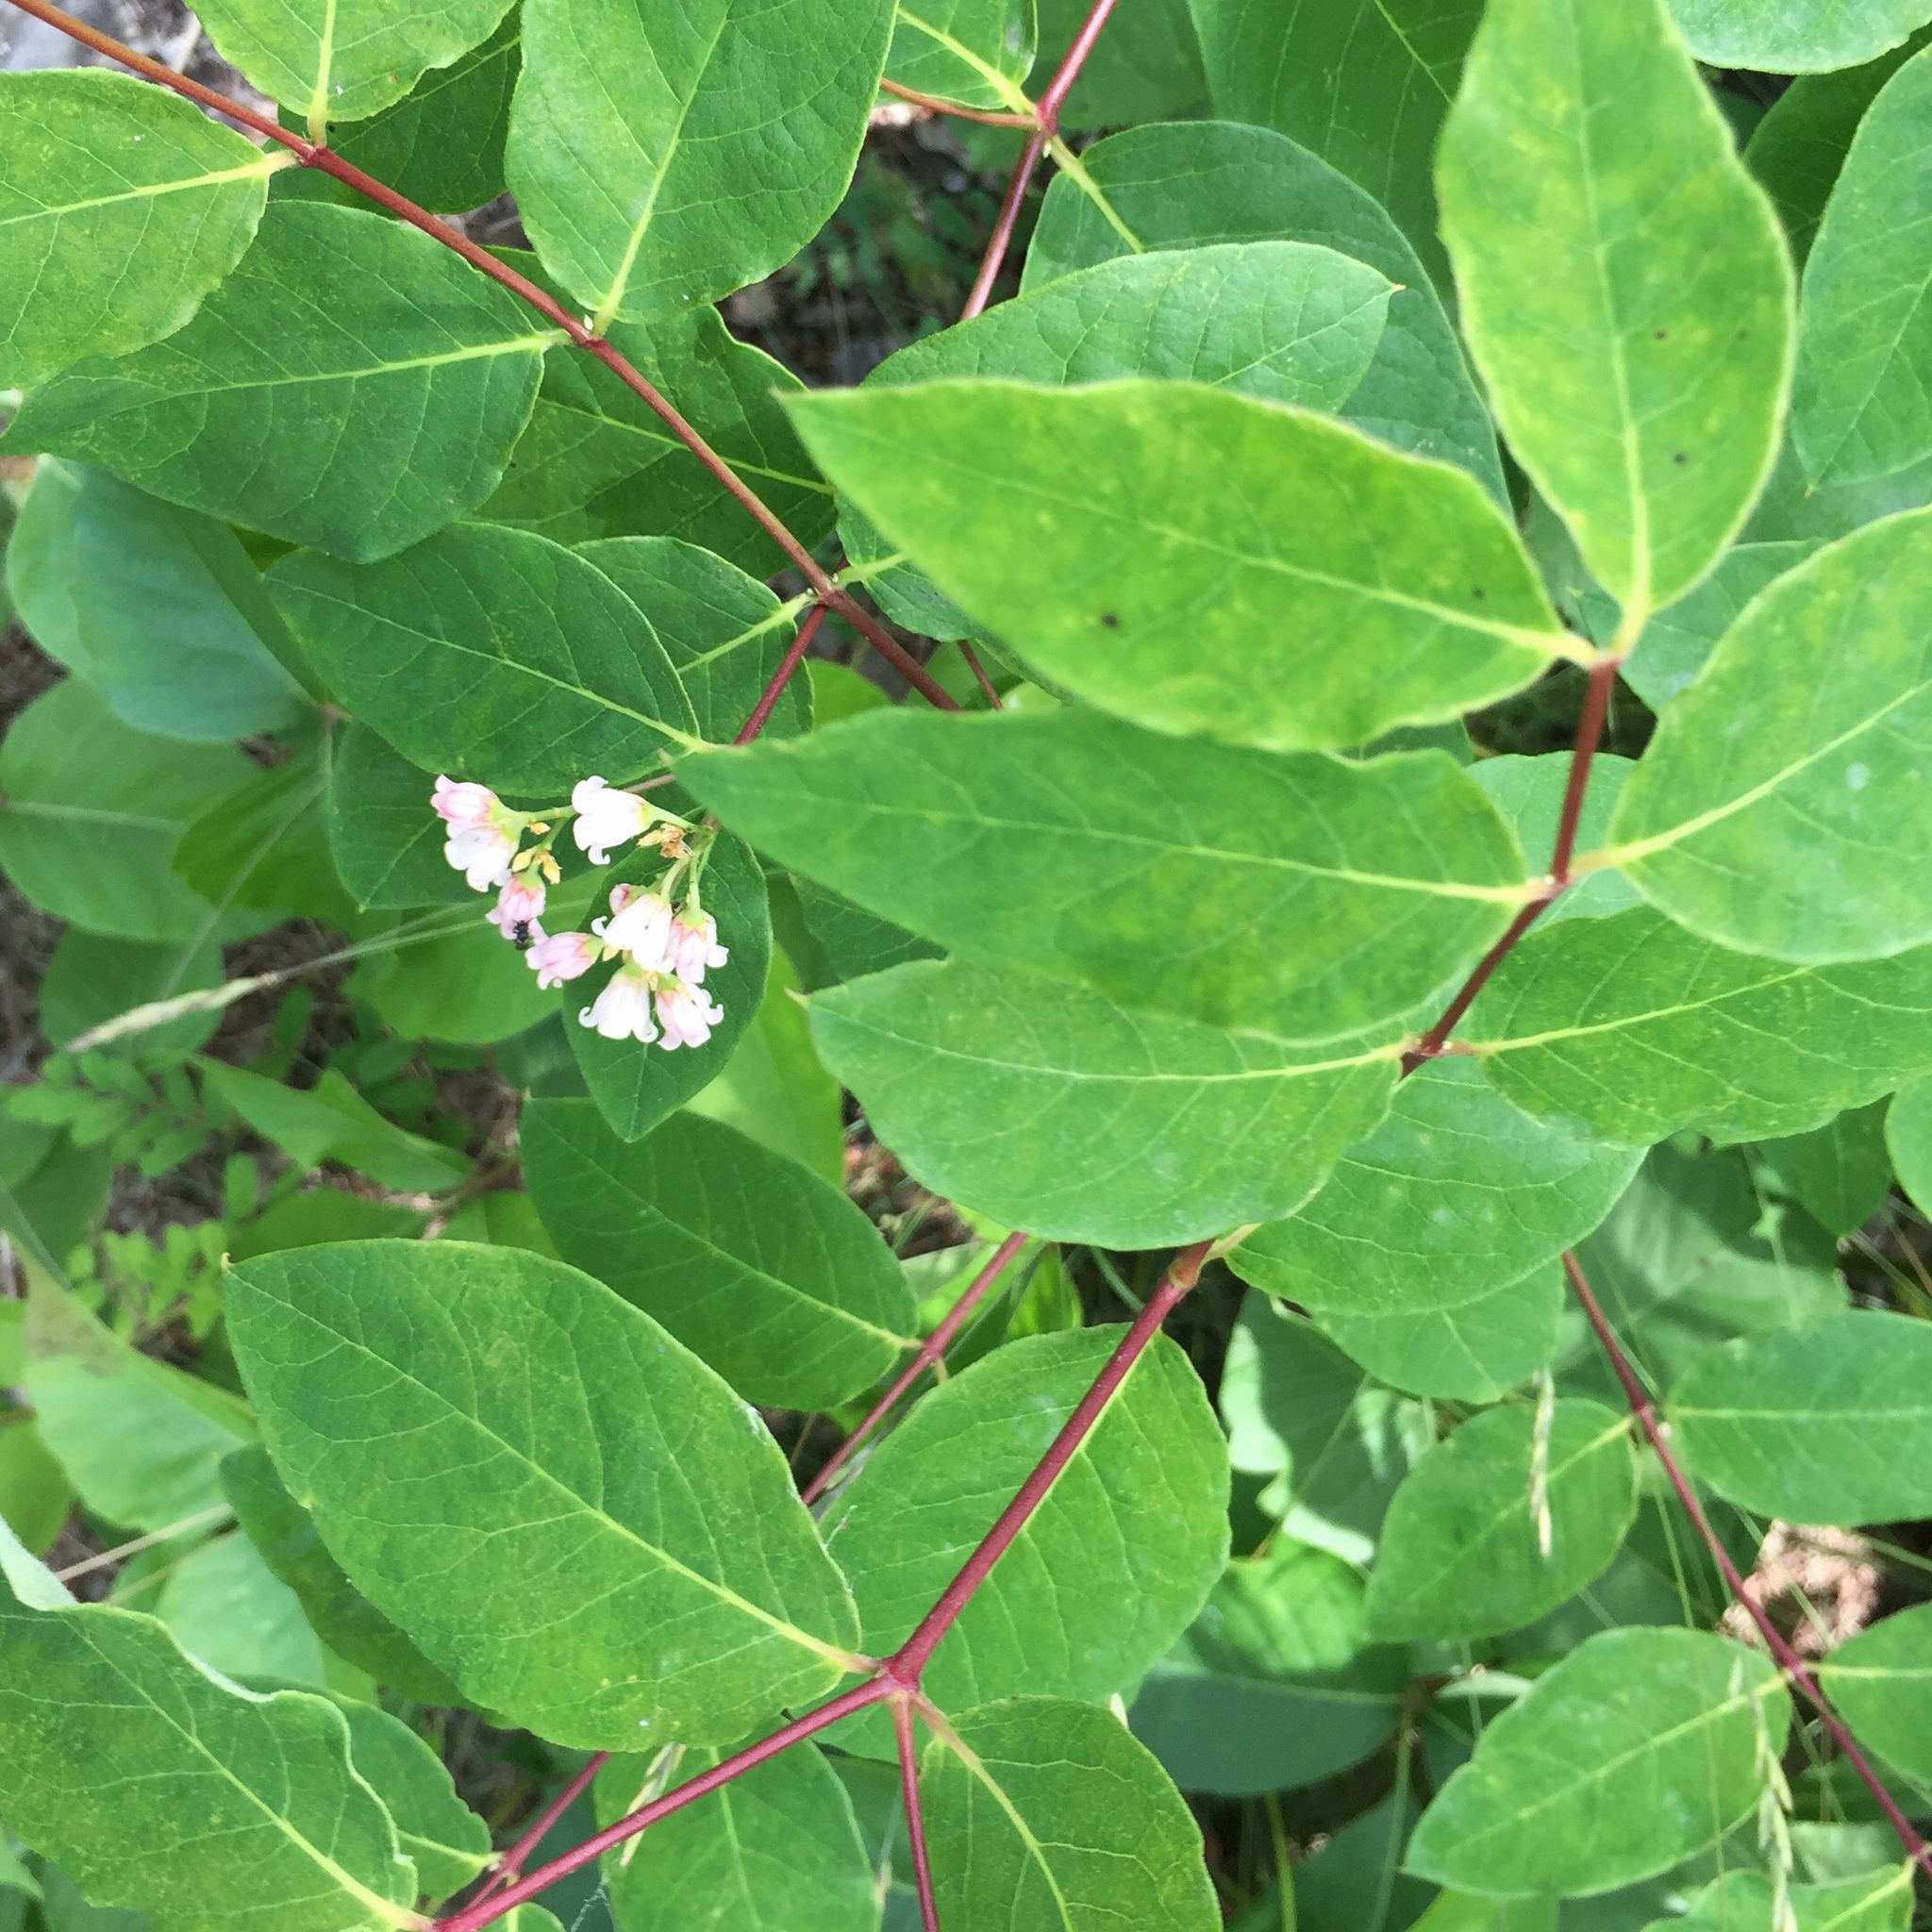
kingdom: Plantae
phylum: Tracheophyta
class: Magnoliopsida
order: Gentianales
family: Apocynaceae
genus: Apocynum
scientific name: Apocynum androsaemifolium
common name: Spreading dogbane
